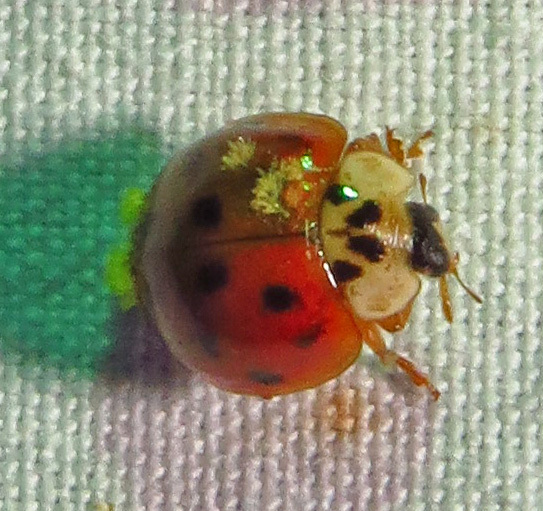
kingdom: Animalia
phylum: Arthropoda
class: Insecta
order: Coleoptera
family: Coccinellidae
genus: Harmonia
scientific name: Harmonia axyridis
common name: Harlequin ladybird
